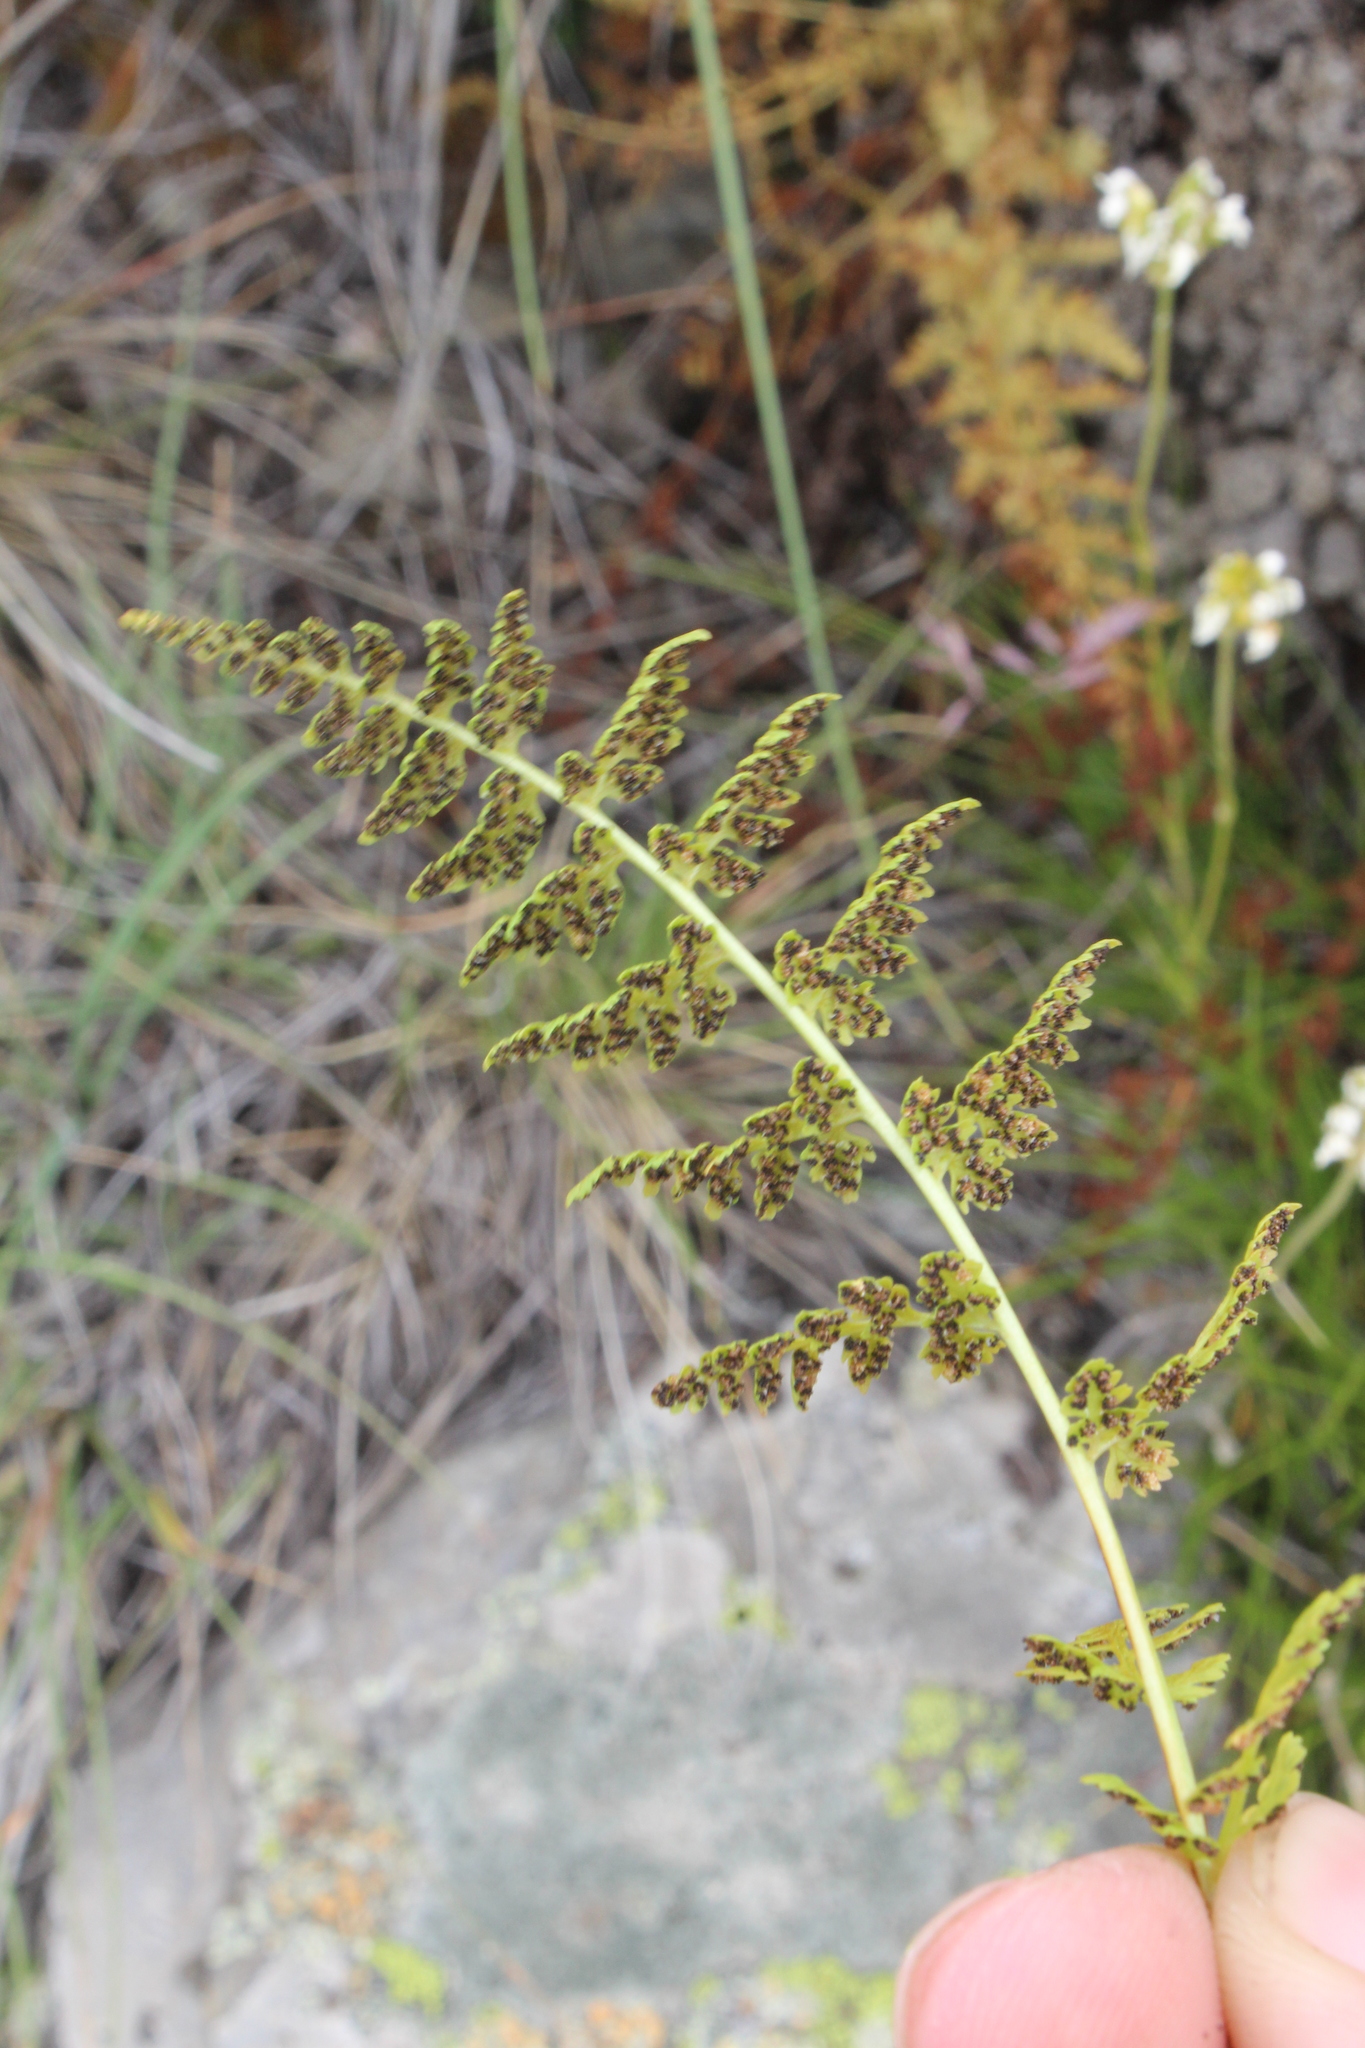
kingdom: Plantae
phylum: Tracheophyta
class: Polypodiopsida
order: Polypodiales
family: Cystopteridaceae
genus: Cystopteris
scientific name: Cystopteris fragilis
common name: Brittle bladder fern
